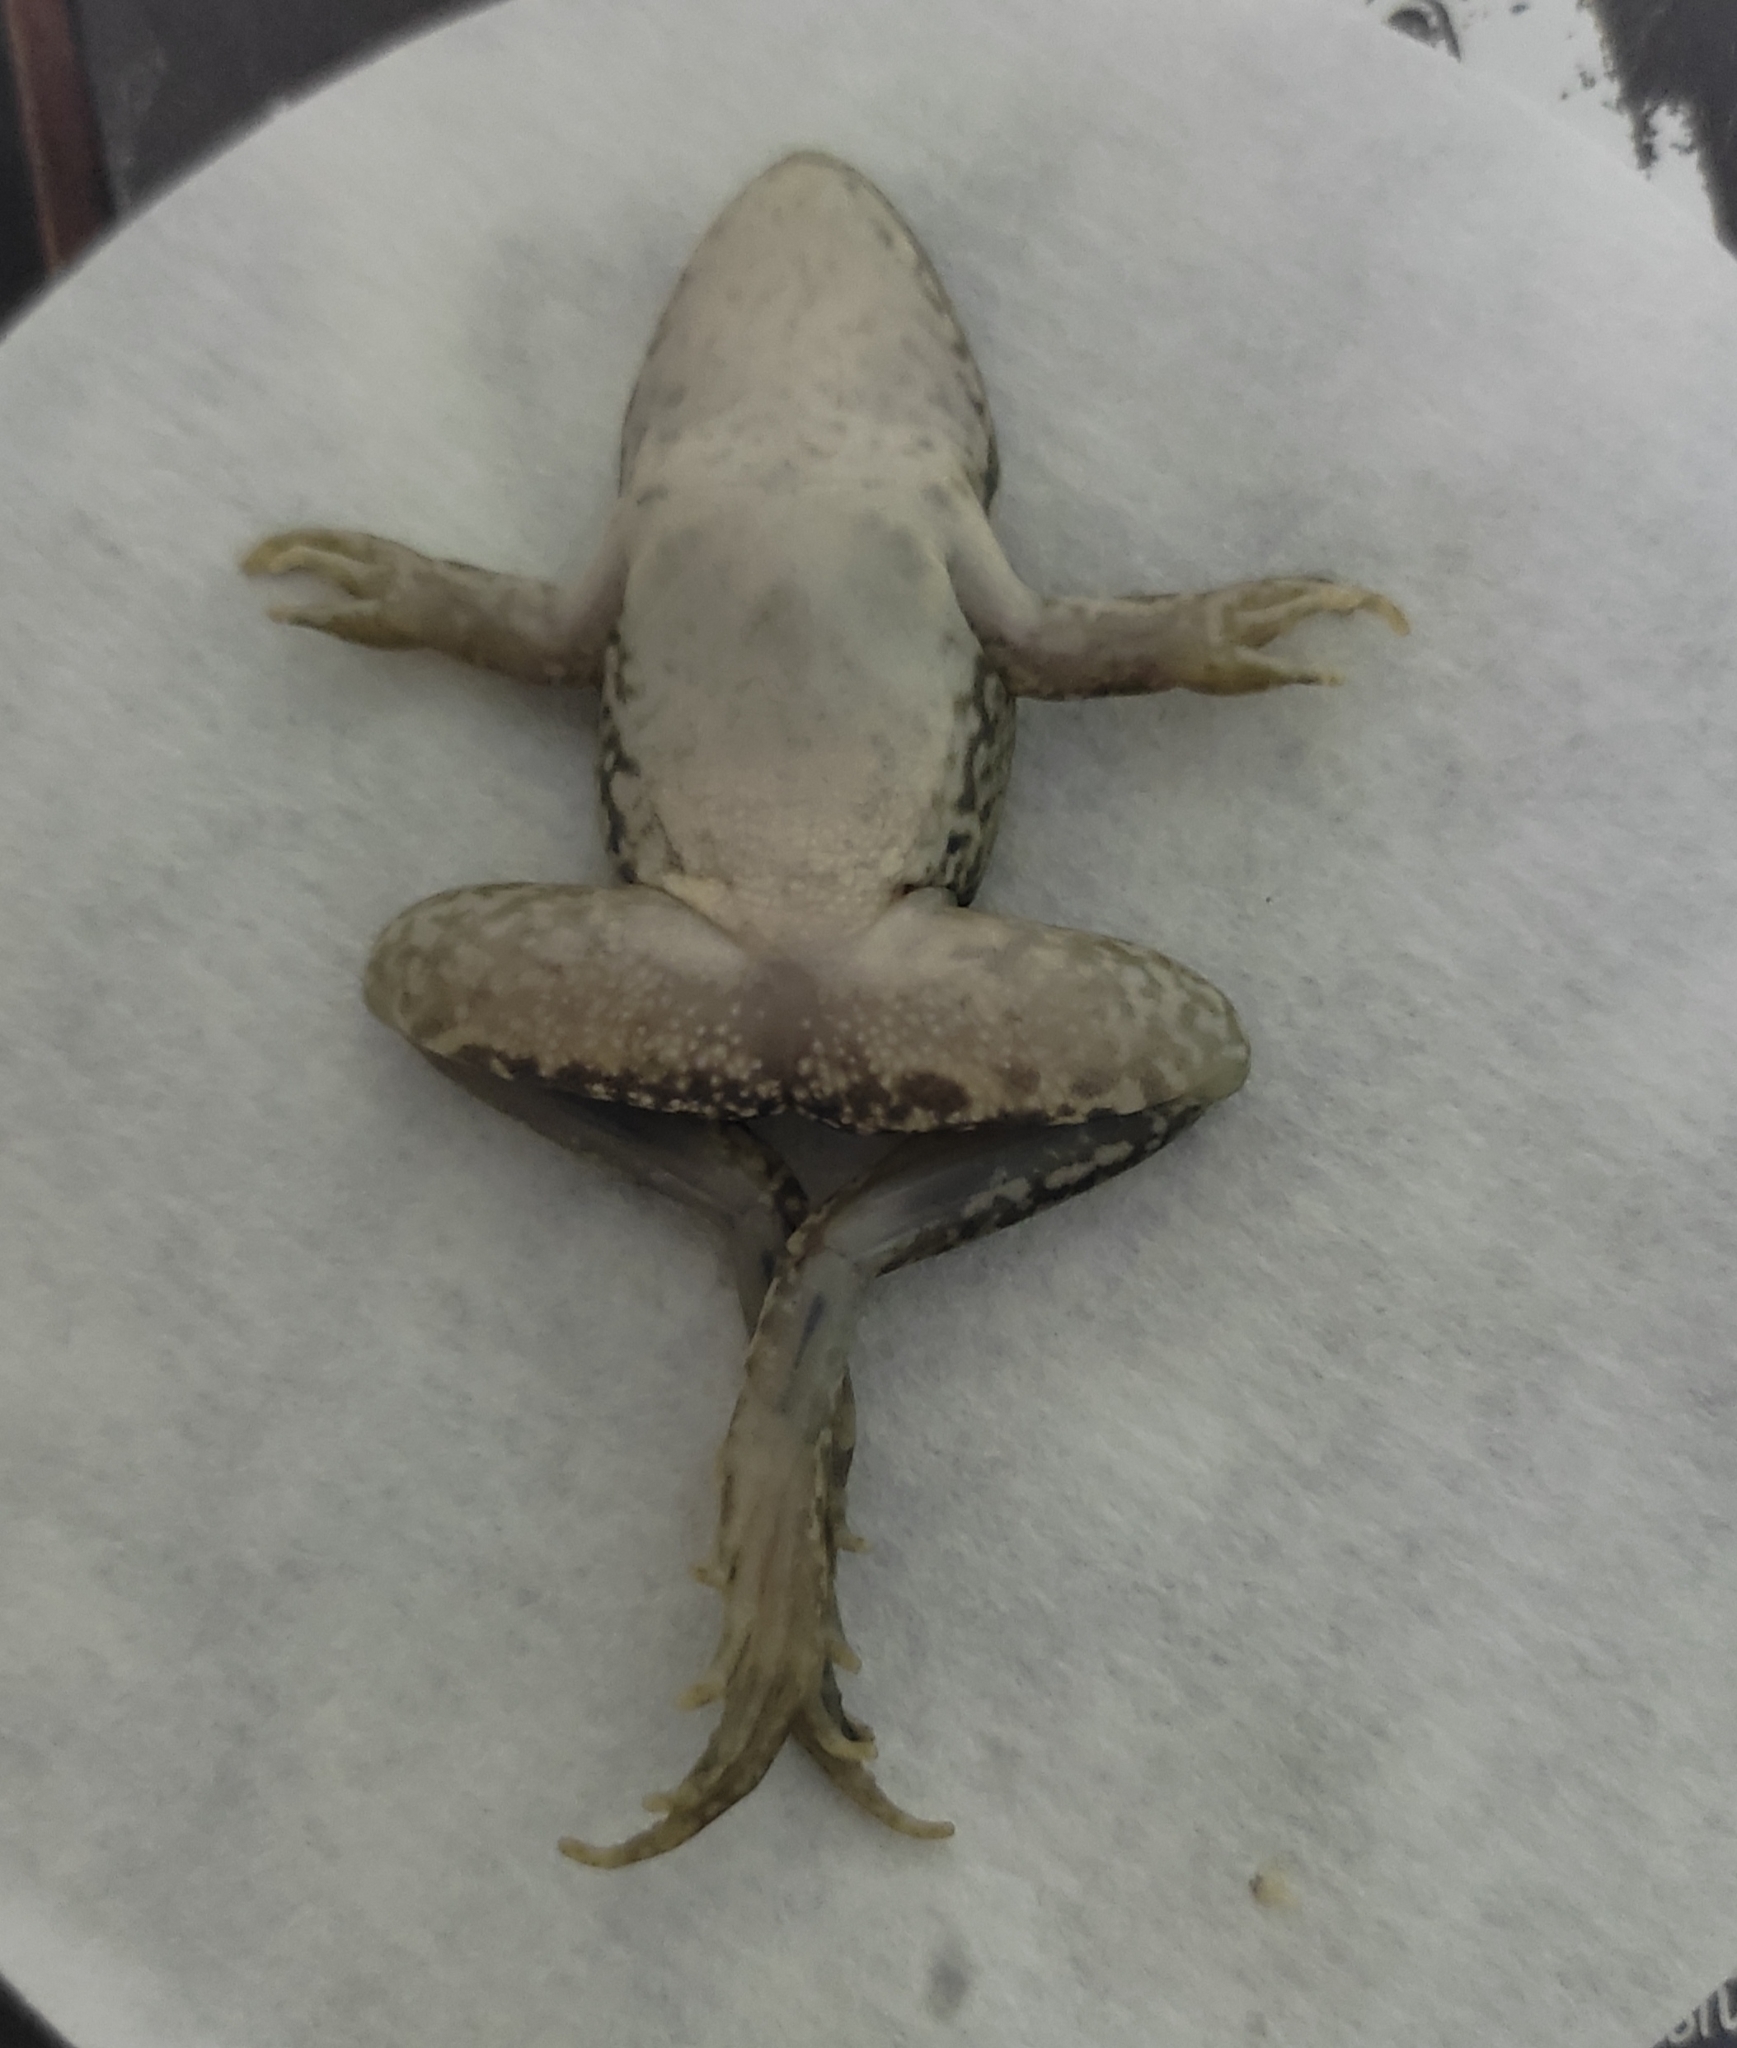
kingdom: Animalia
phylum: Chordata
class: Amphibia
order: Anura
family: Ranidae
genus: Pelophylax
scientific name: Pelophylax ridibundus
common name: Marsh frog
